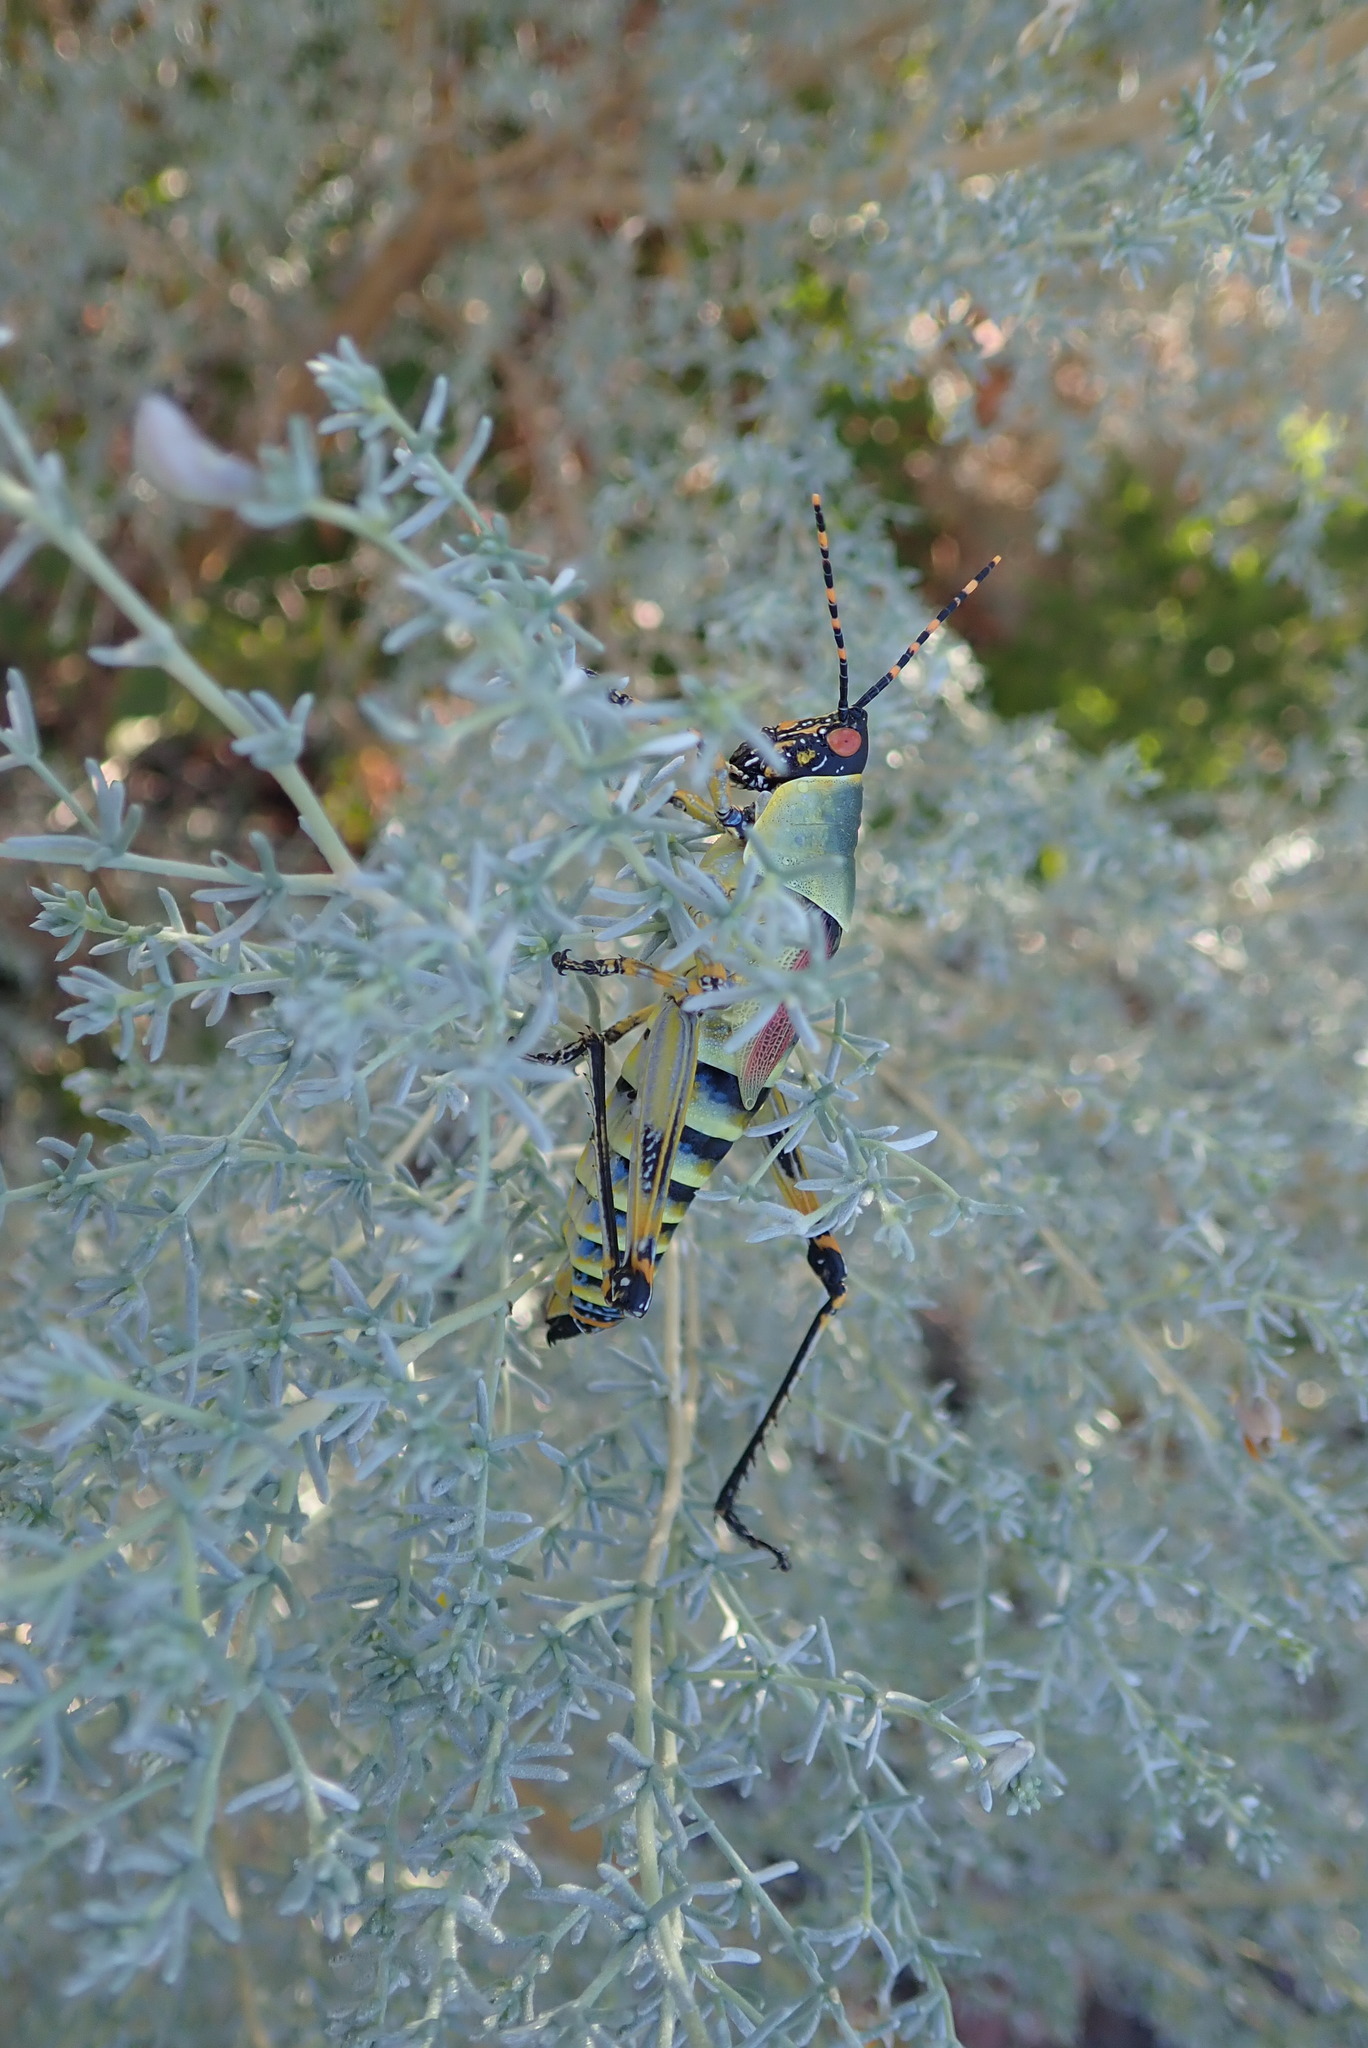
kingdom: Plantae
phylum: Tracheophyta
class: Magnoliopsida
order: Fabales
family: Fabaceae
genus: Aspalathus
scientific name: Aspalathus pedunculata
